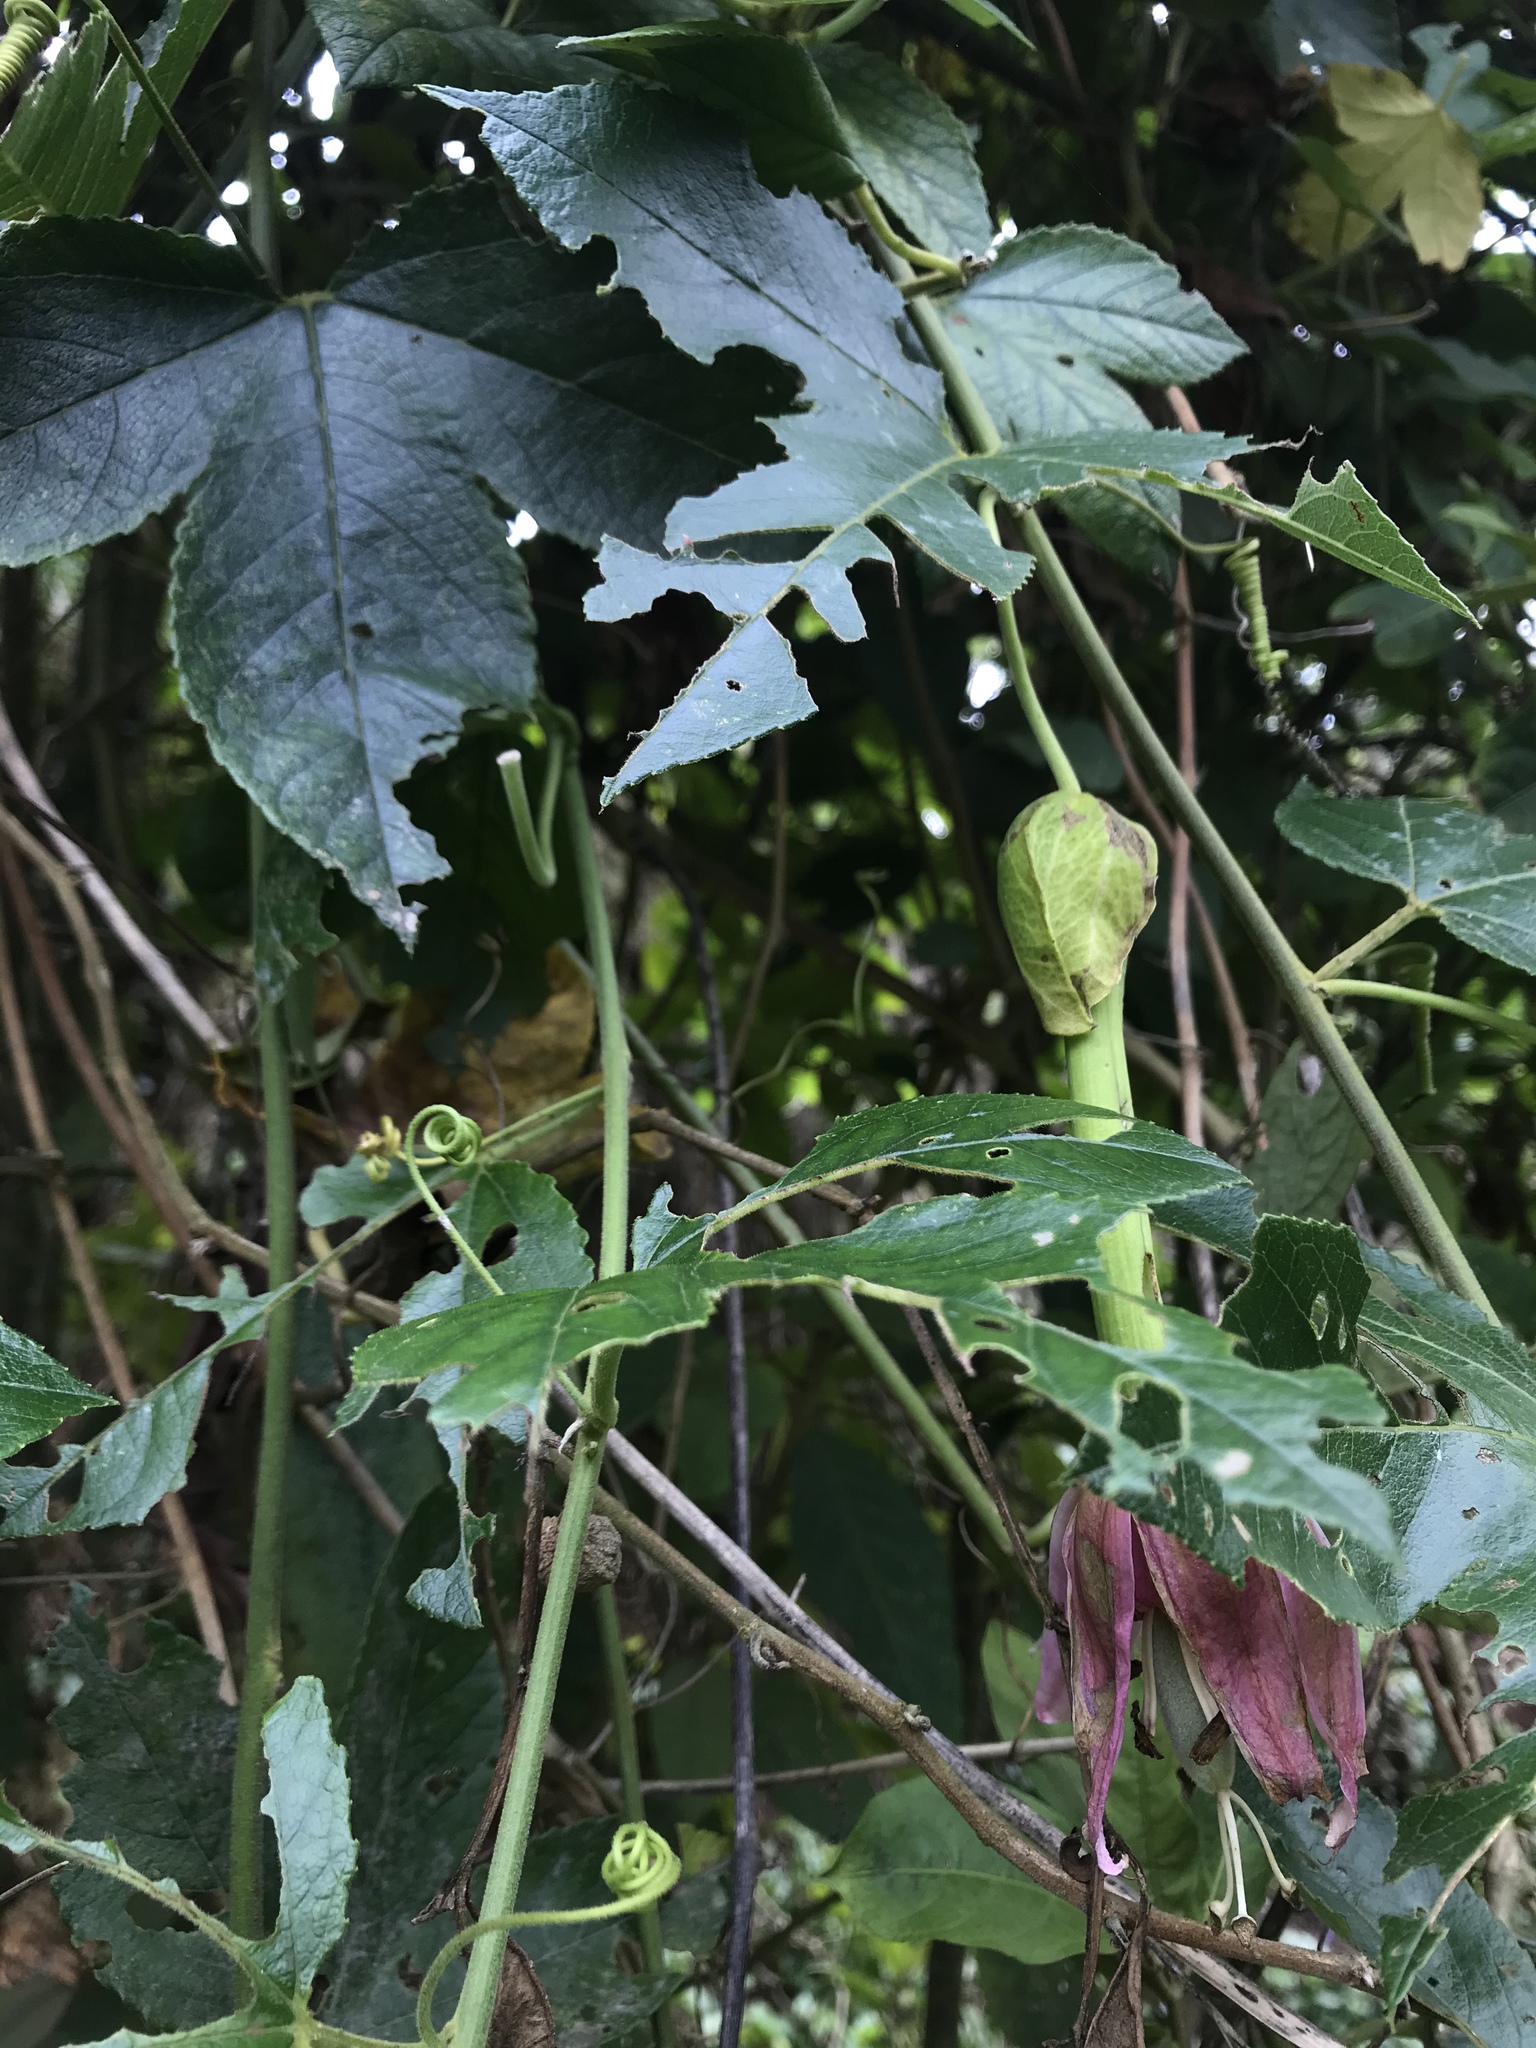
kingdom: Plantae
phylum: Tracheophyta
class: Magnoliopsida
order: Malpighiales
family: Passifloraceae
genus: Passiflora
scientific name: Passiflora tarminiana
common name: Banana poka
